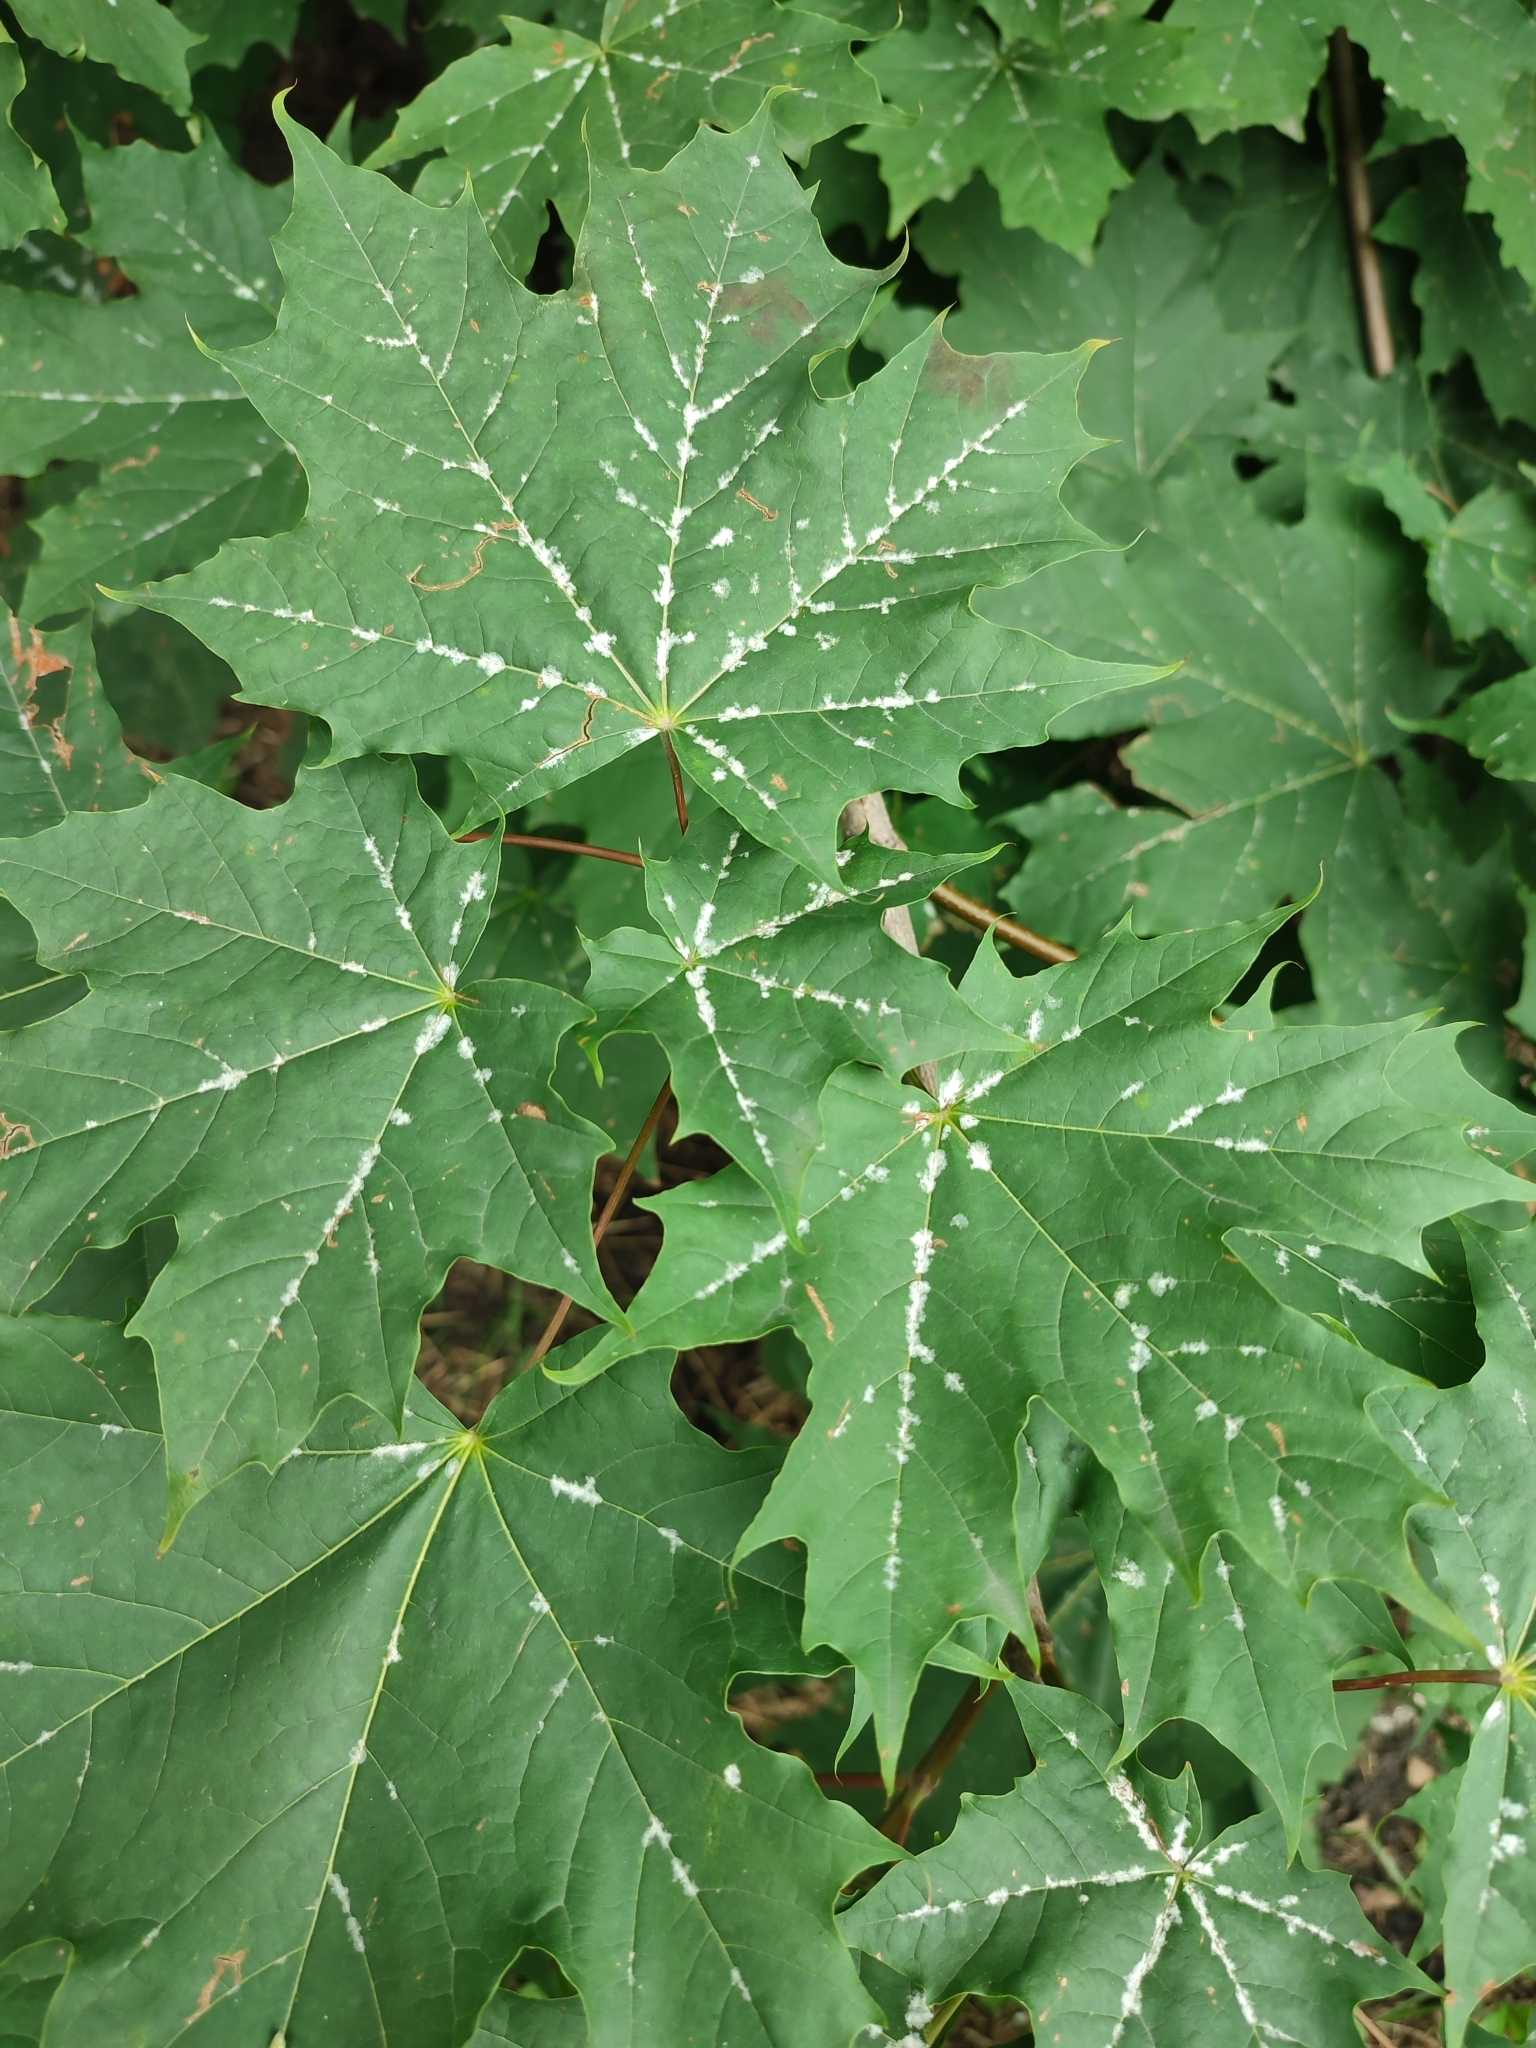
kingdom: Fungi
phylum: Ascomycota
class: Leotiomycetes
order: Helotiales
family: Erysiphaceae
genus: Sawadaea
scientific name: Sawadaea tulasnei
